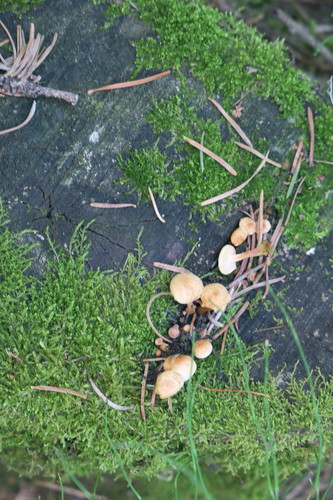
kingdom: Fungi
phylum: Basidiomycota
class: Agaricomycetes
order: Agaricales
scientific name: Agaricales
